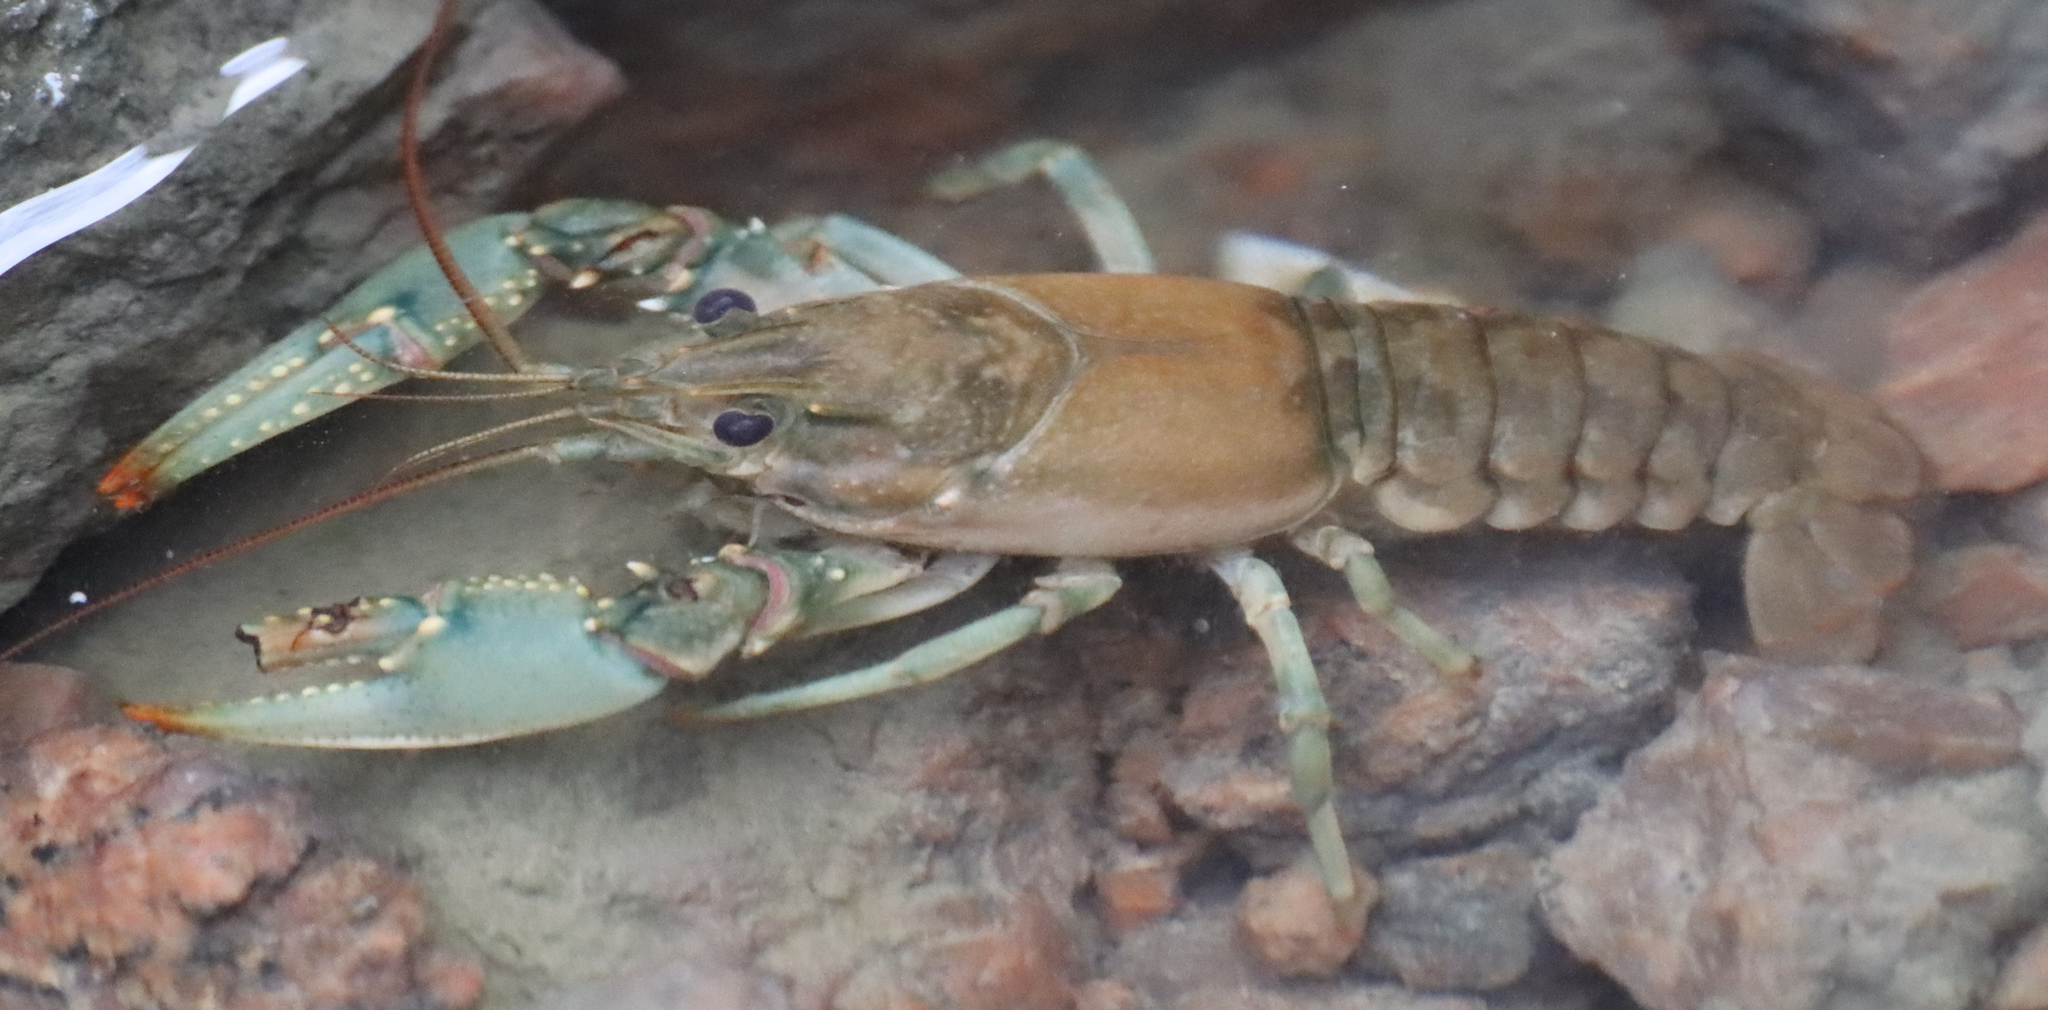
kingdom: Animalia
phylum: Arthropoda
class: Malacostraca
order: Decapoda
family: Cambaridae
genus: Faxonius
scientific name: Faxonius virilis
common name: Virile crayfish
